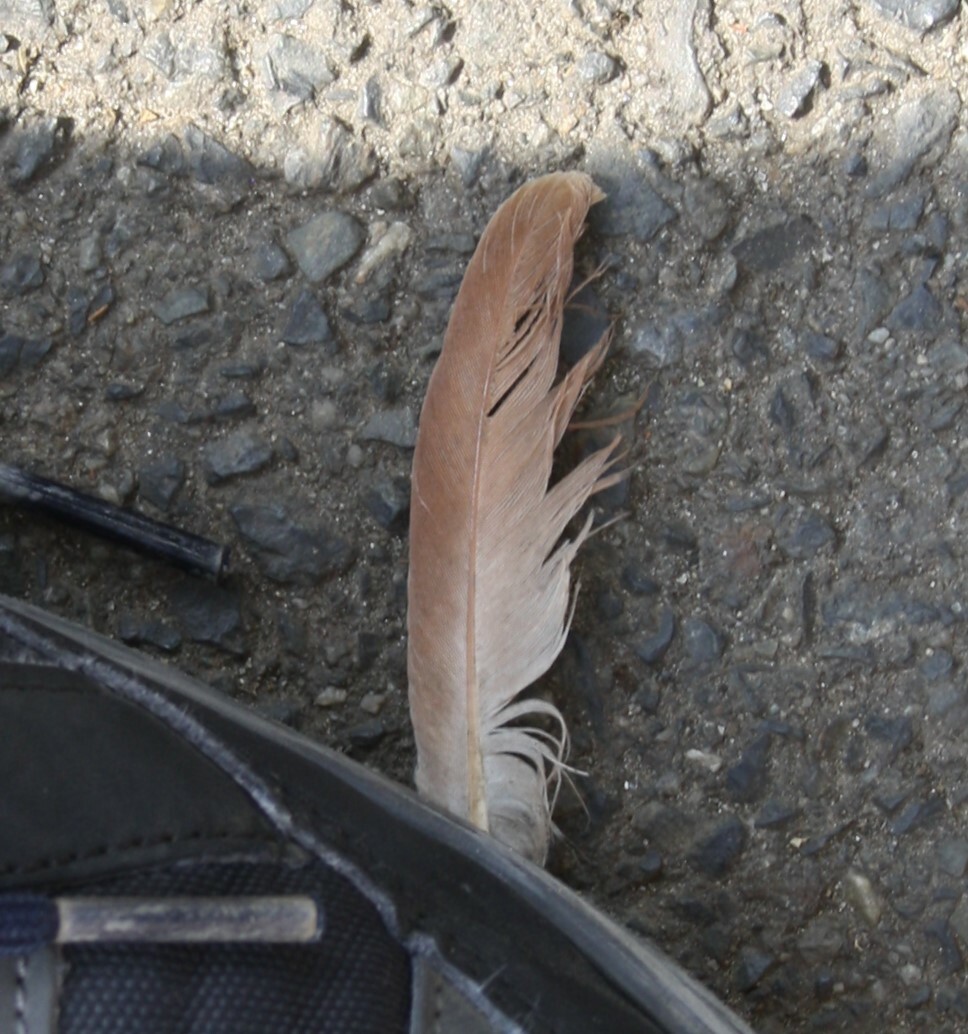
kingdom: Animalia
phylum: Chordata
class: Aves
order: Columbiformes
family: Columbidae
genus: Columba
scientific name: Columba livia
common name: Rock pigeon
